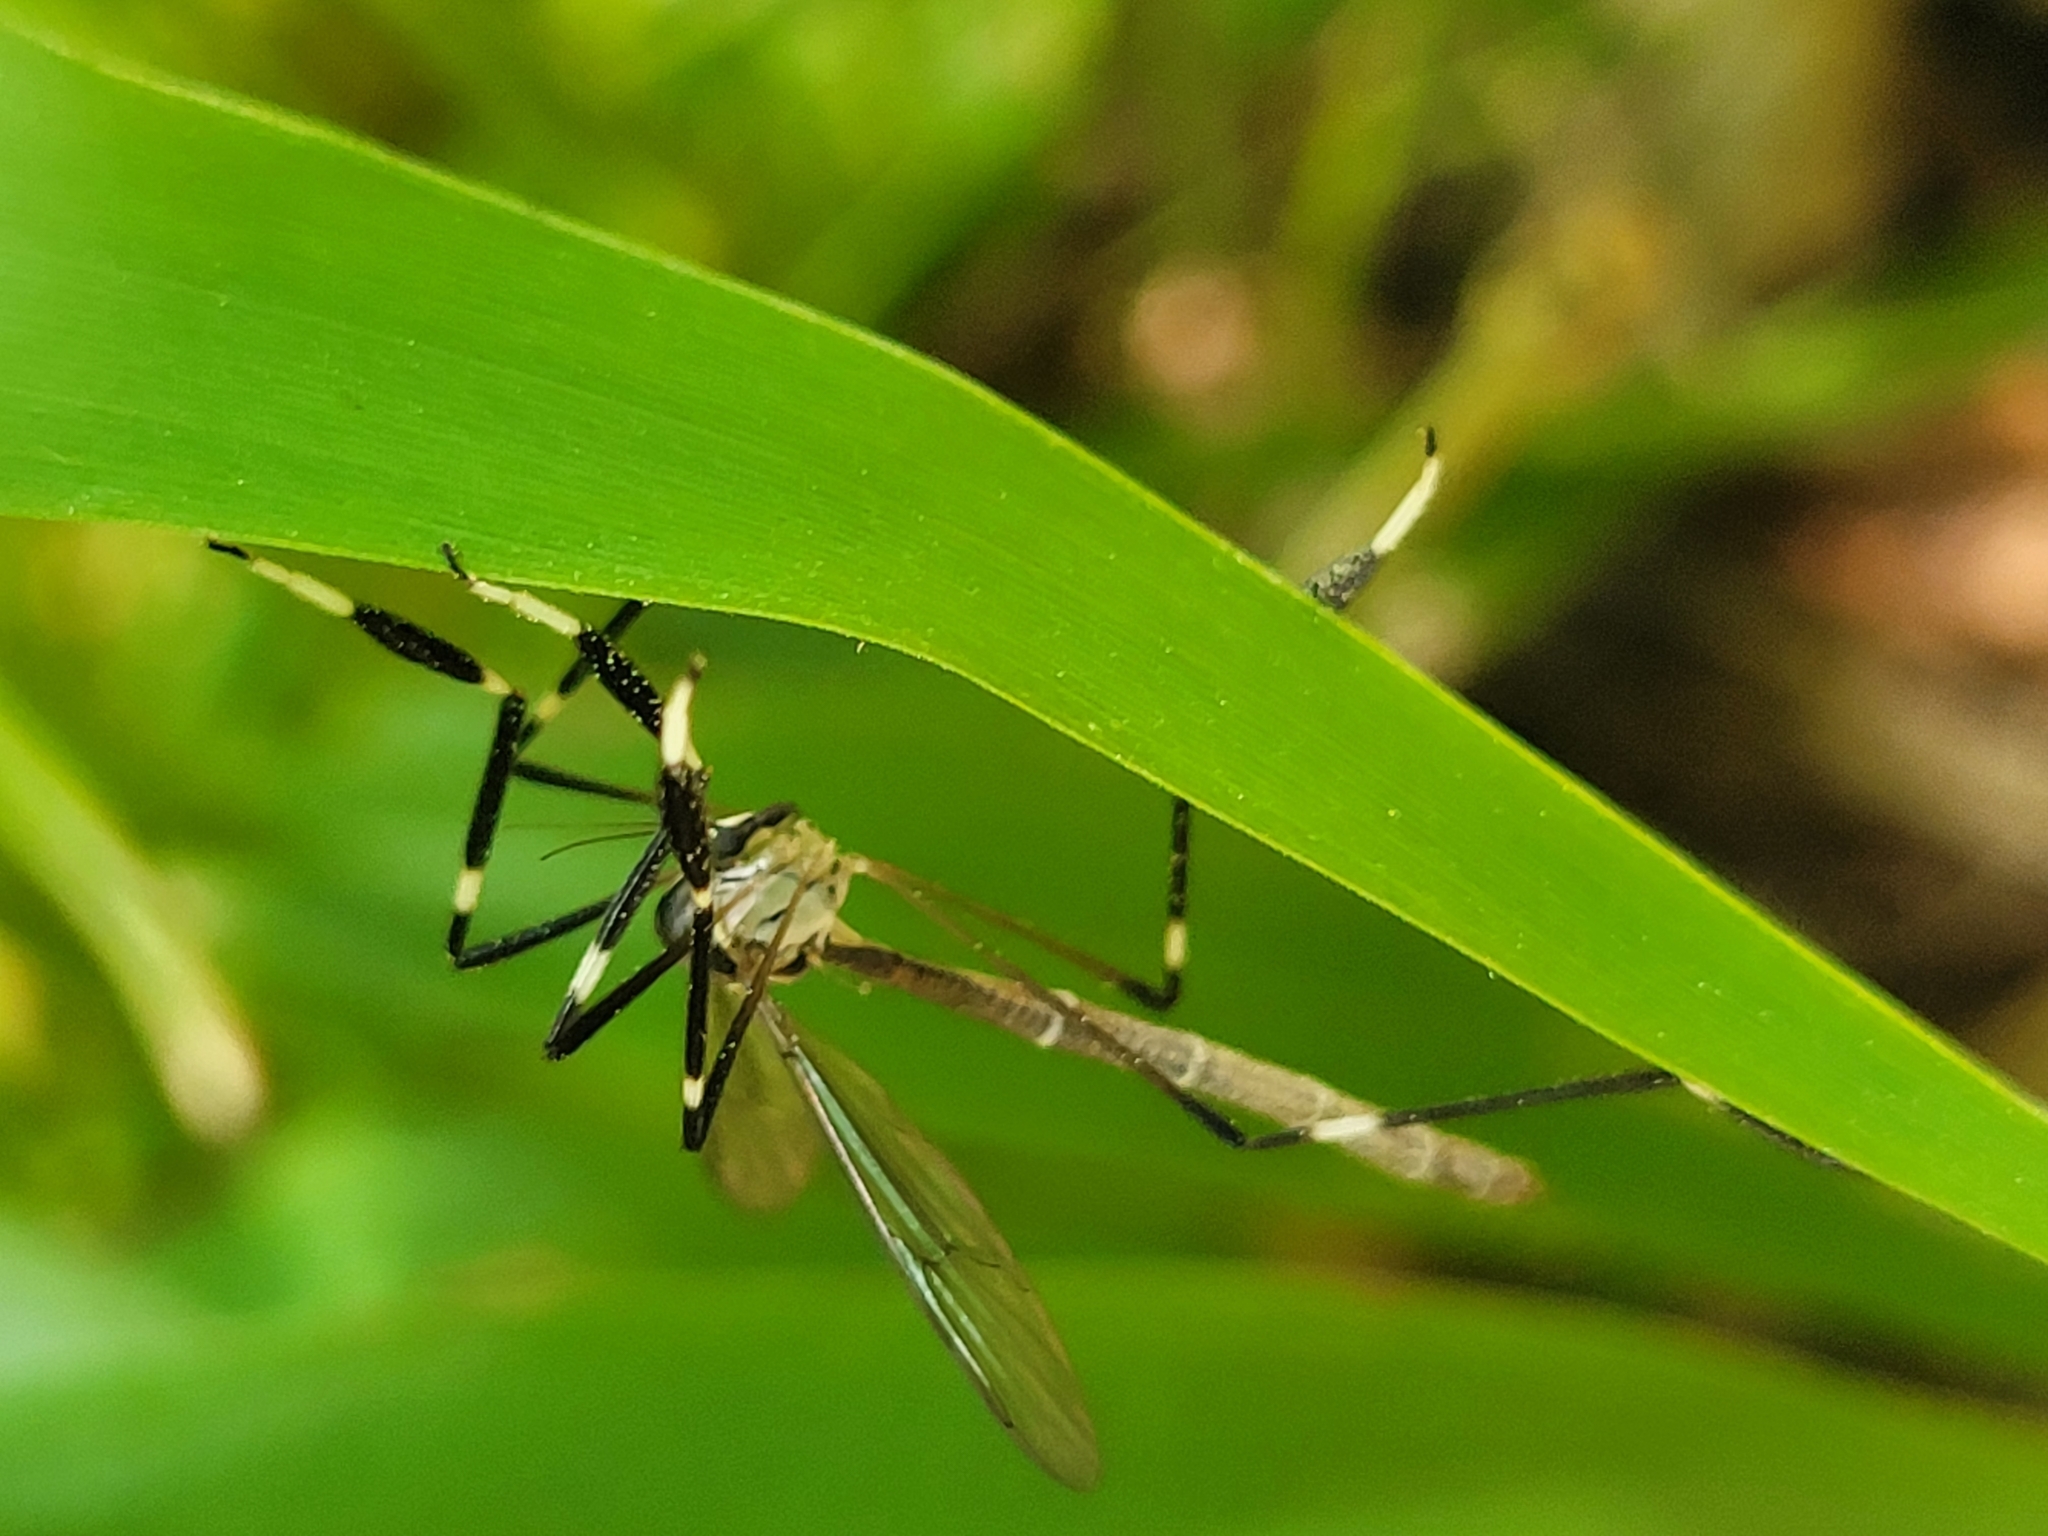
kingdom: Animalia
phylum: Arthropoda
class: Insecta
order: Diptera
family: Ptychopteridae
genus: Bittacomorpha
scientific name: Bittacomorpha clavipes
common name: Eastern phantom crane fly
